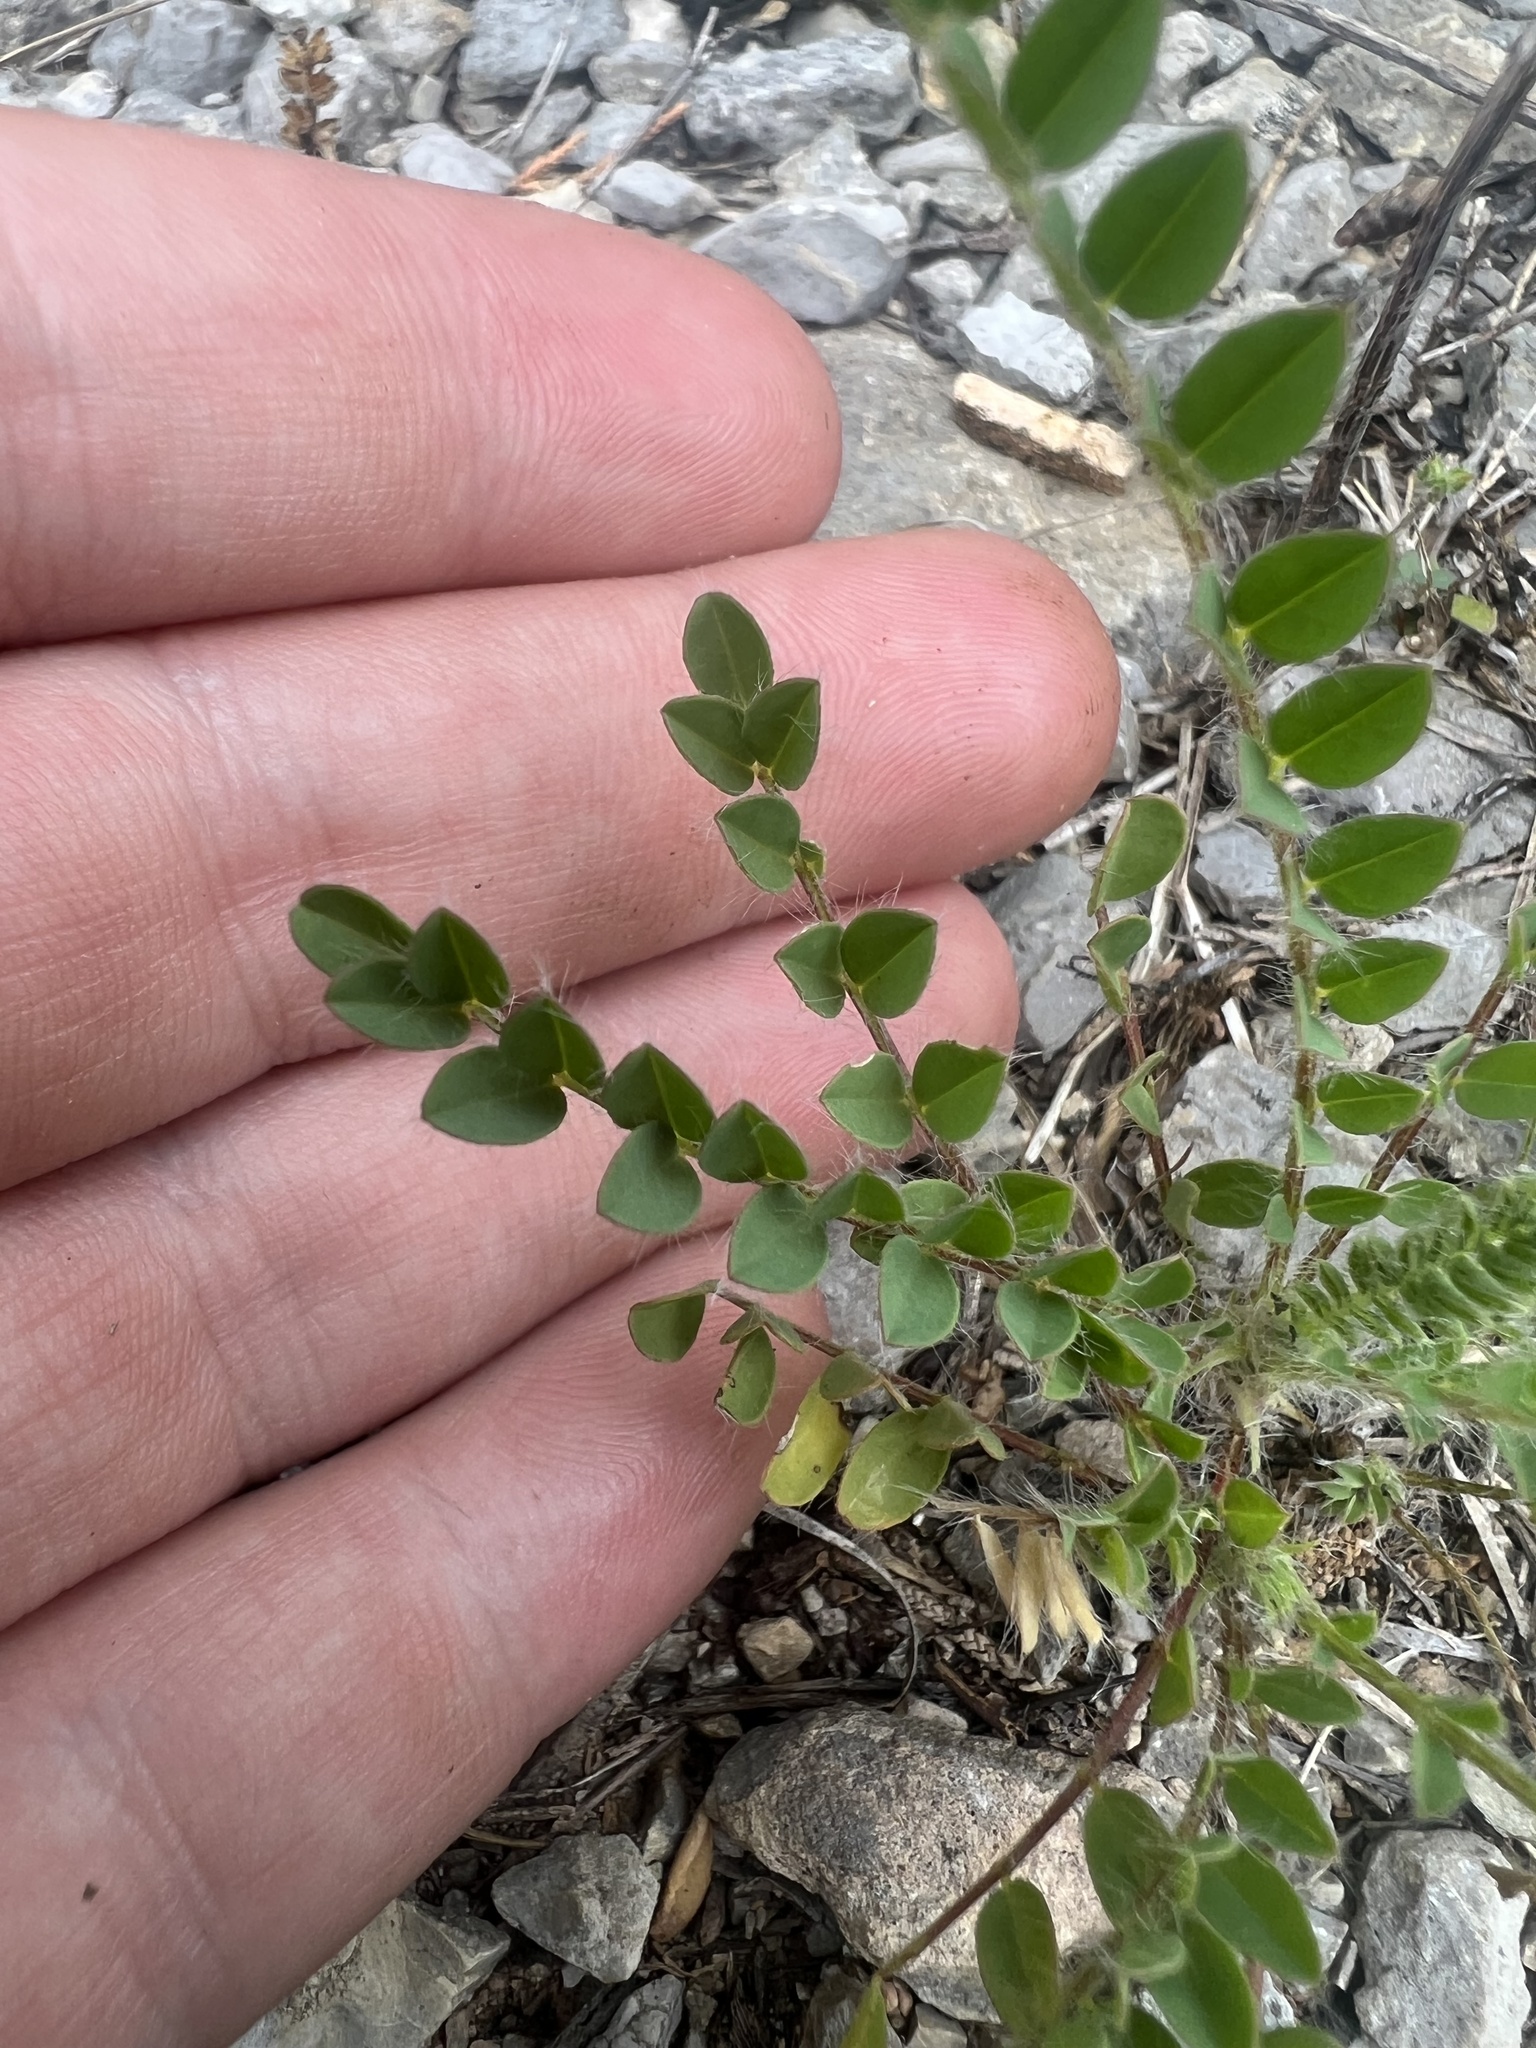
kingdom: Plantae
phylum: Tracheophyta
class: Magnoliopsida
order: Fabales
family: Fabaceae
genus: Astragalus
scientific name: Astragalus tennesseensis
